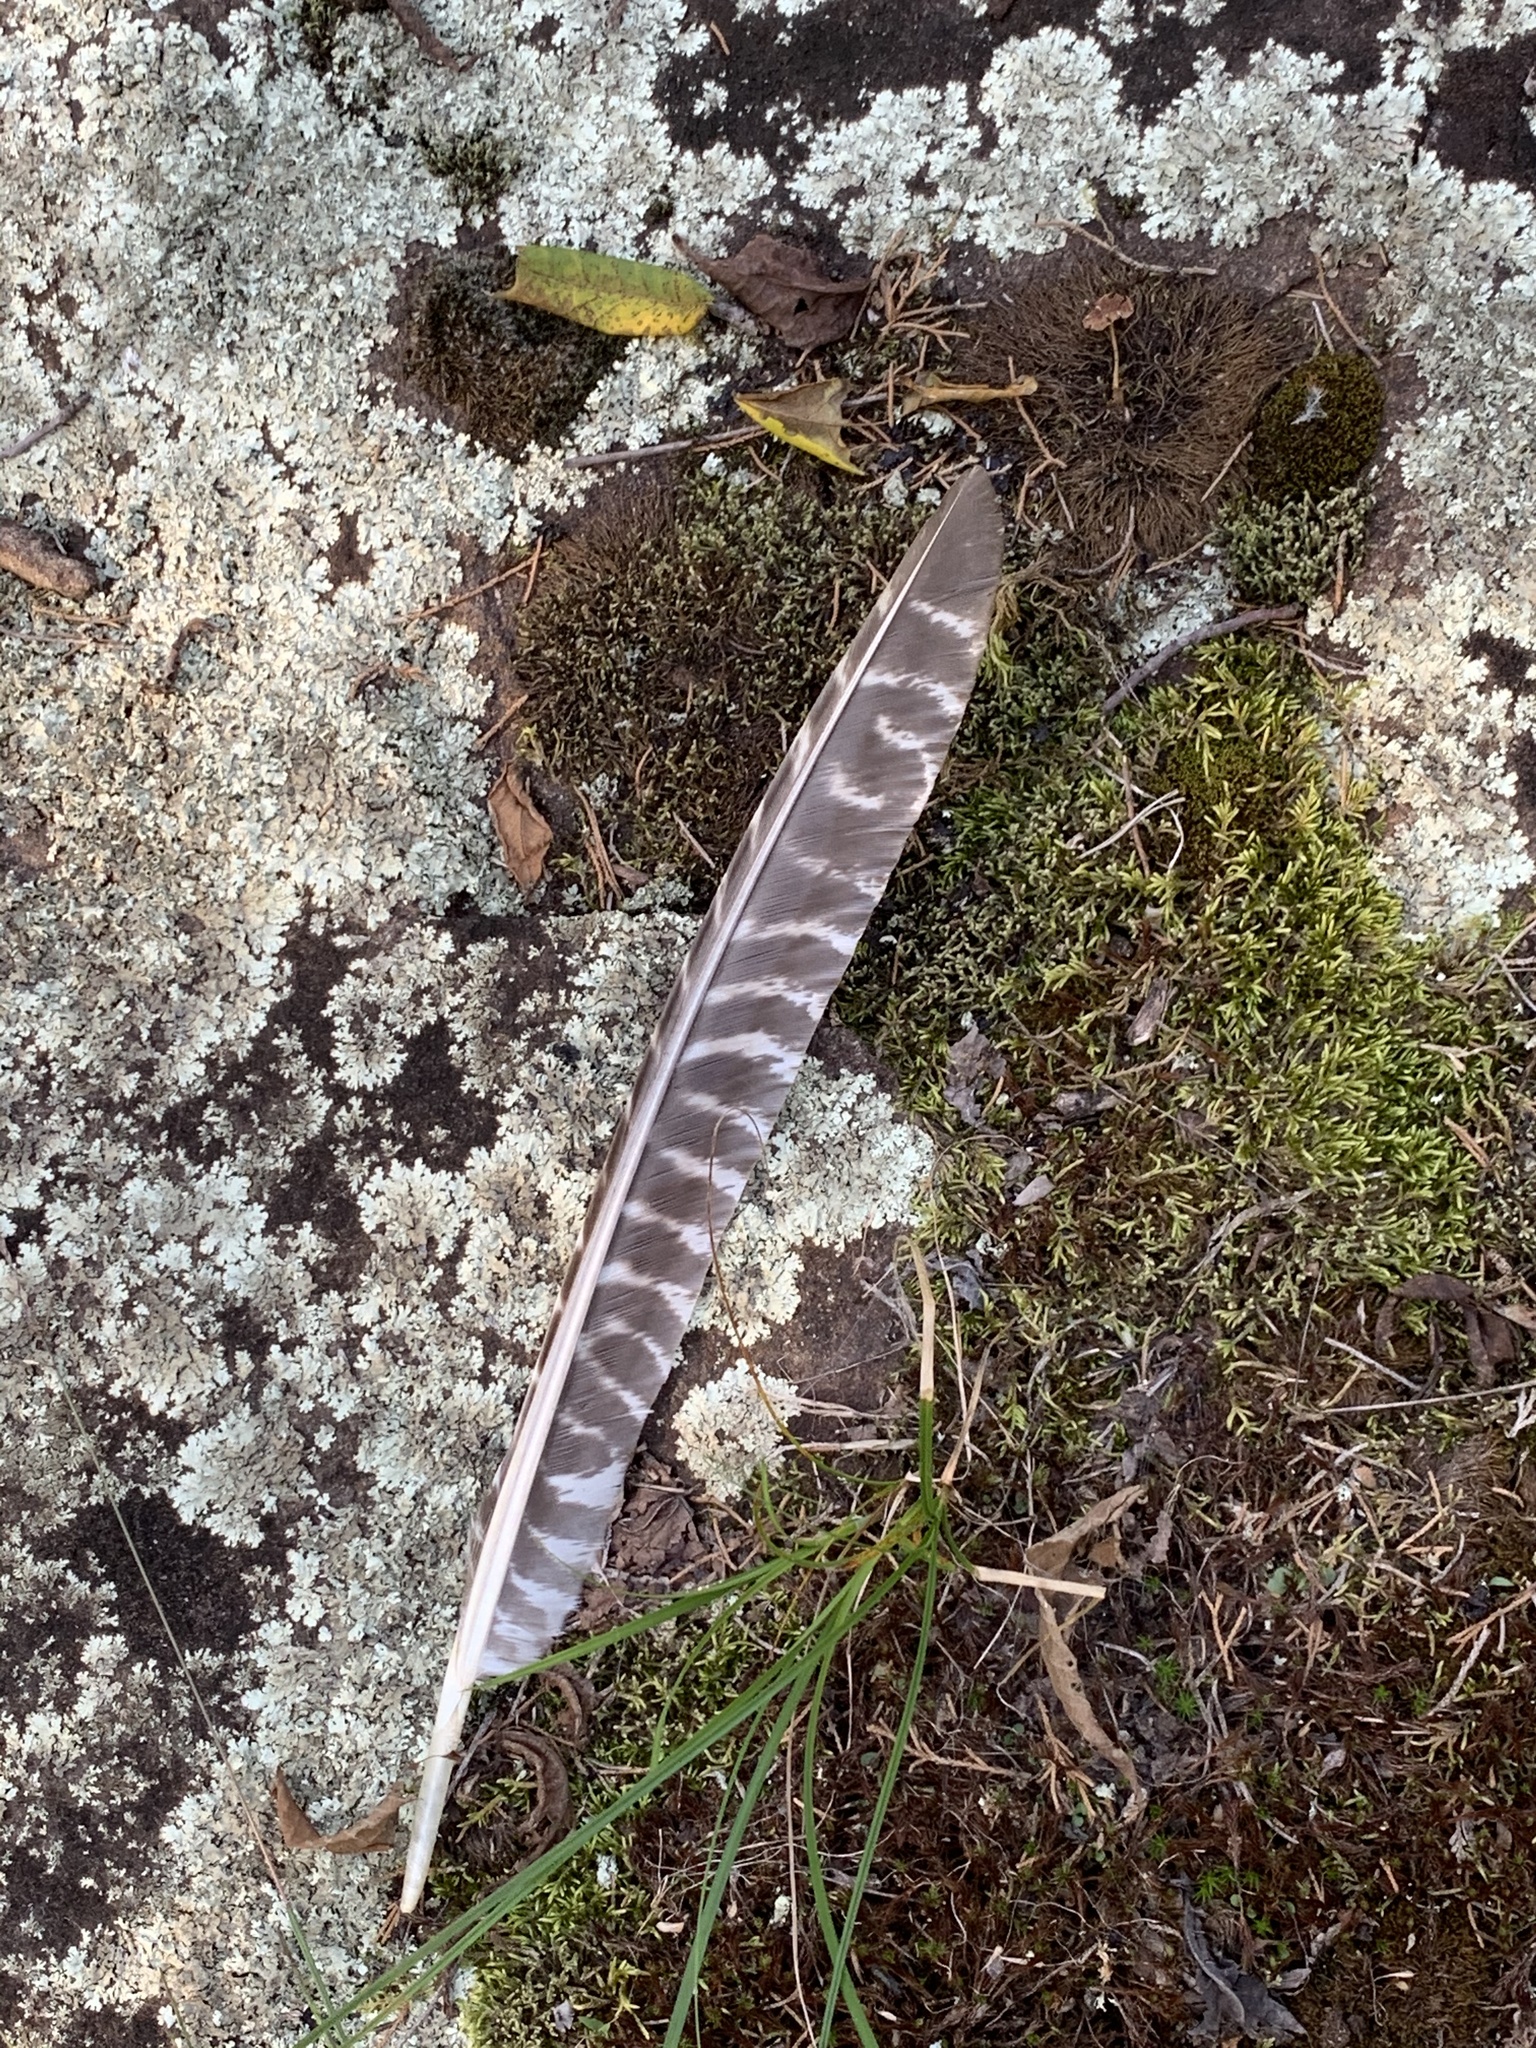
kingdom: Animalia
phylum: Chordata
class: Aves
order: Galliformes
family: Phasianidae
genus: Meleagris
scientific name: Meleagris gallopavo
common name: Wild turkey
